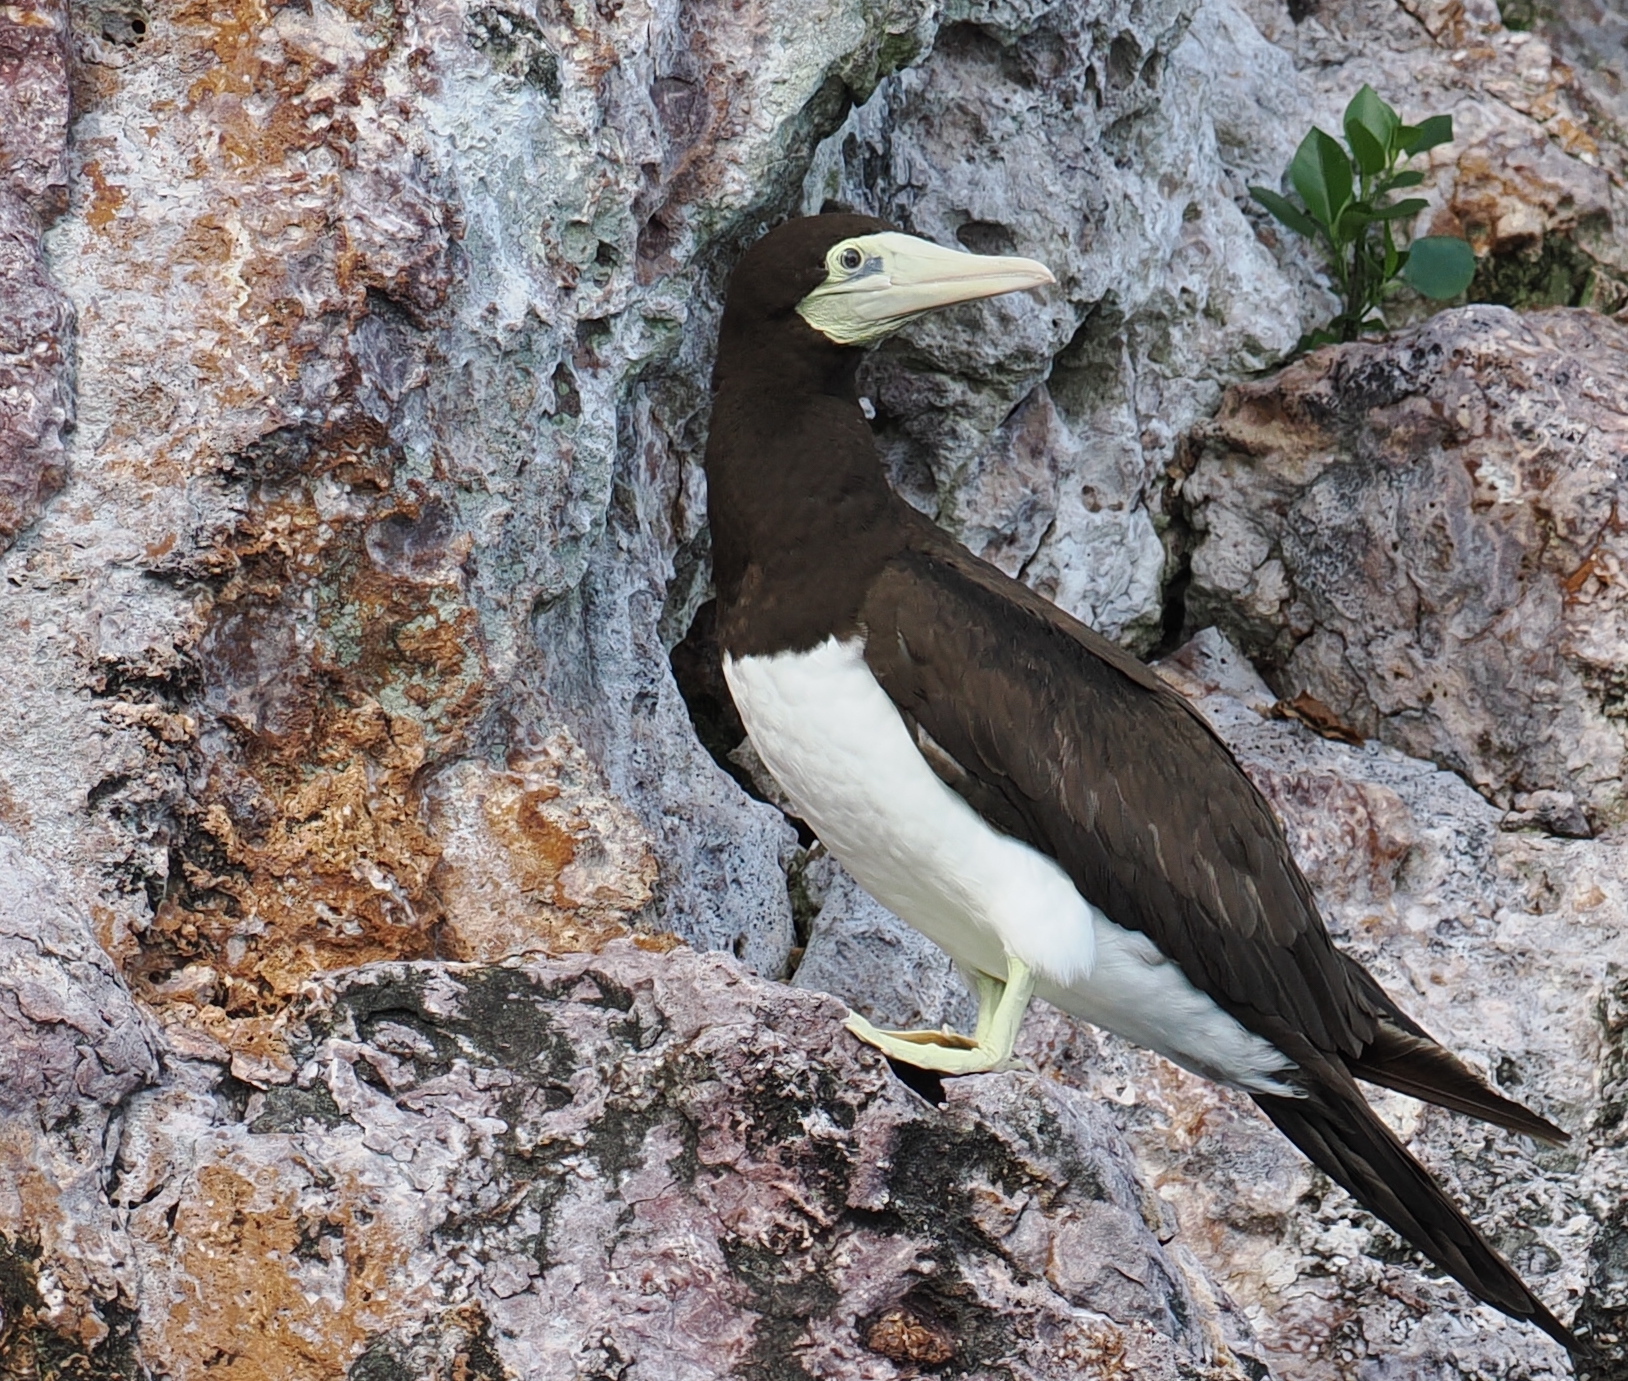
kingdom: Animalia
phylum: Chordata
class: Aves
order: Suliformes
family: Sulidae
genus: Sula
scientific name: Sula leucogaster
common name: Brown booby
